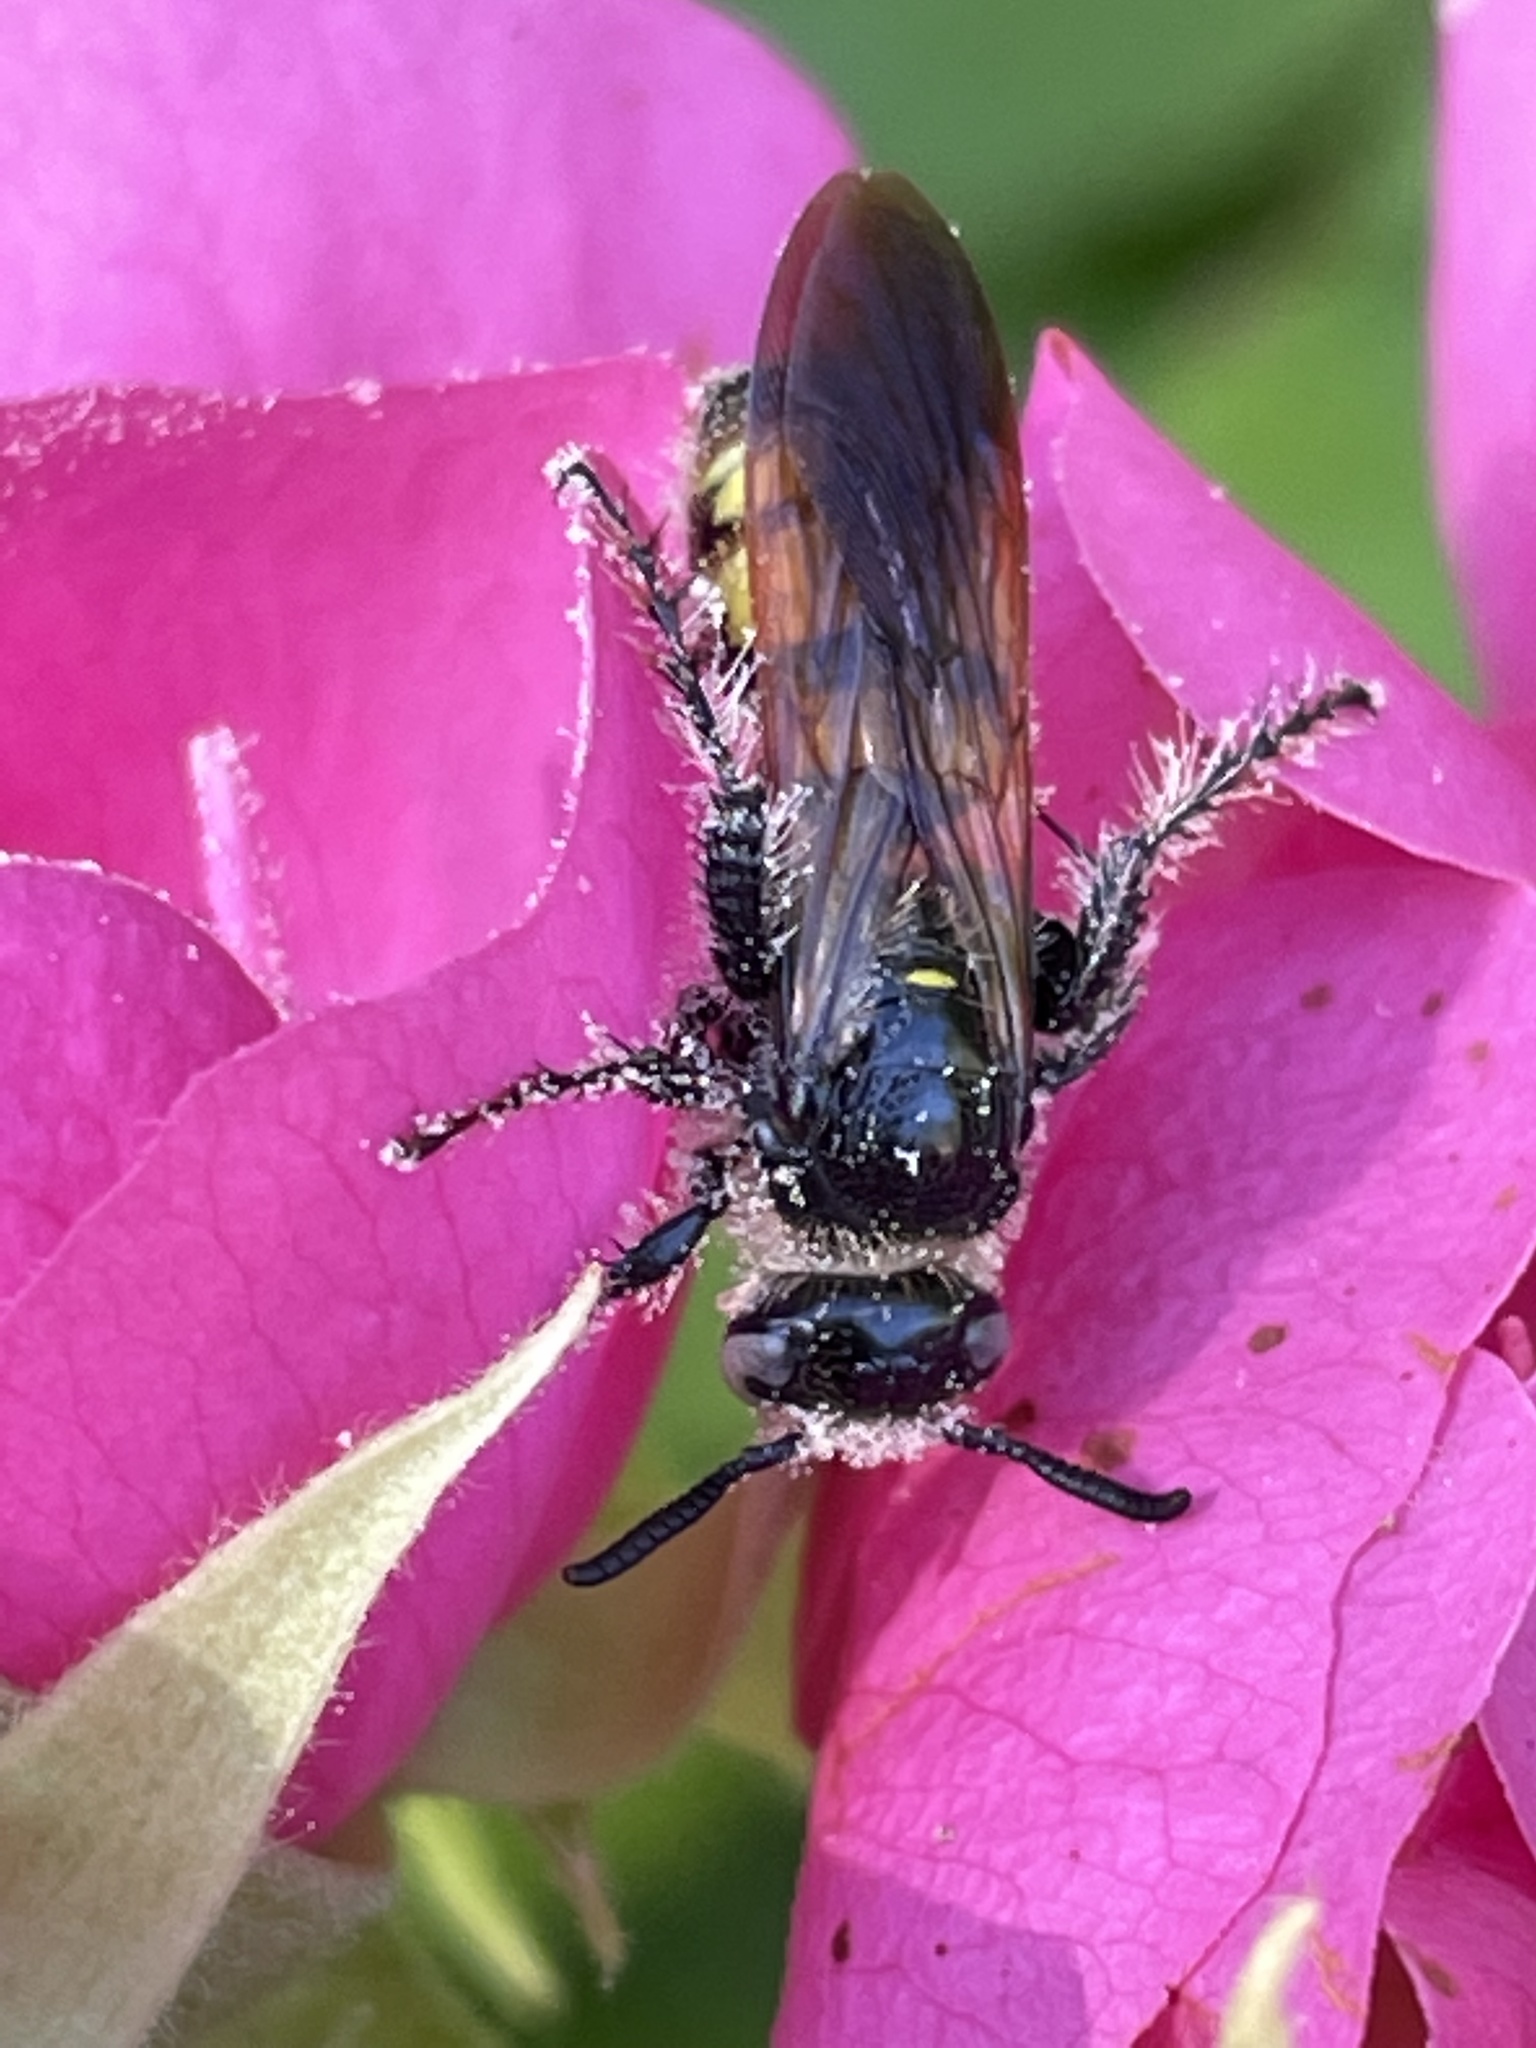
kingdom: Animalia
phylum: Arthropoda
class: Insecta
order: Hymenoptera
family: Scoliidae
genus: Dielis
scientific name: Dielis
